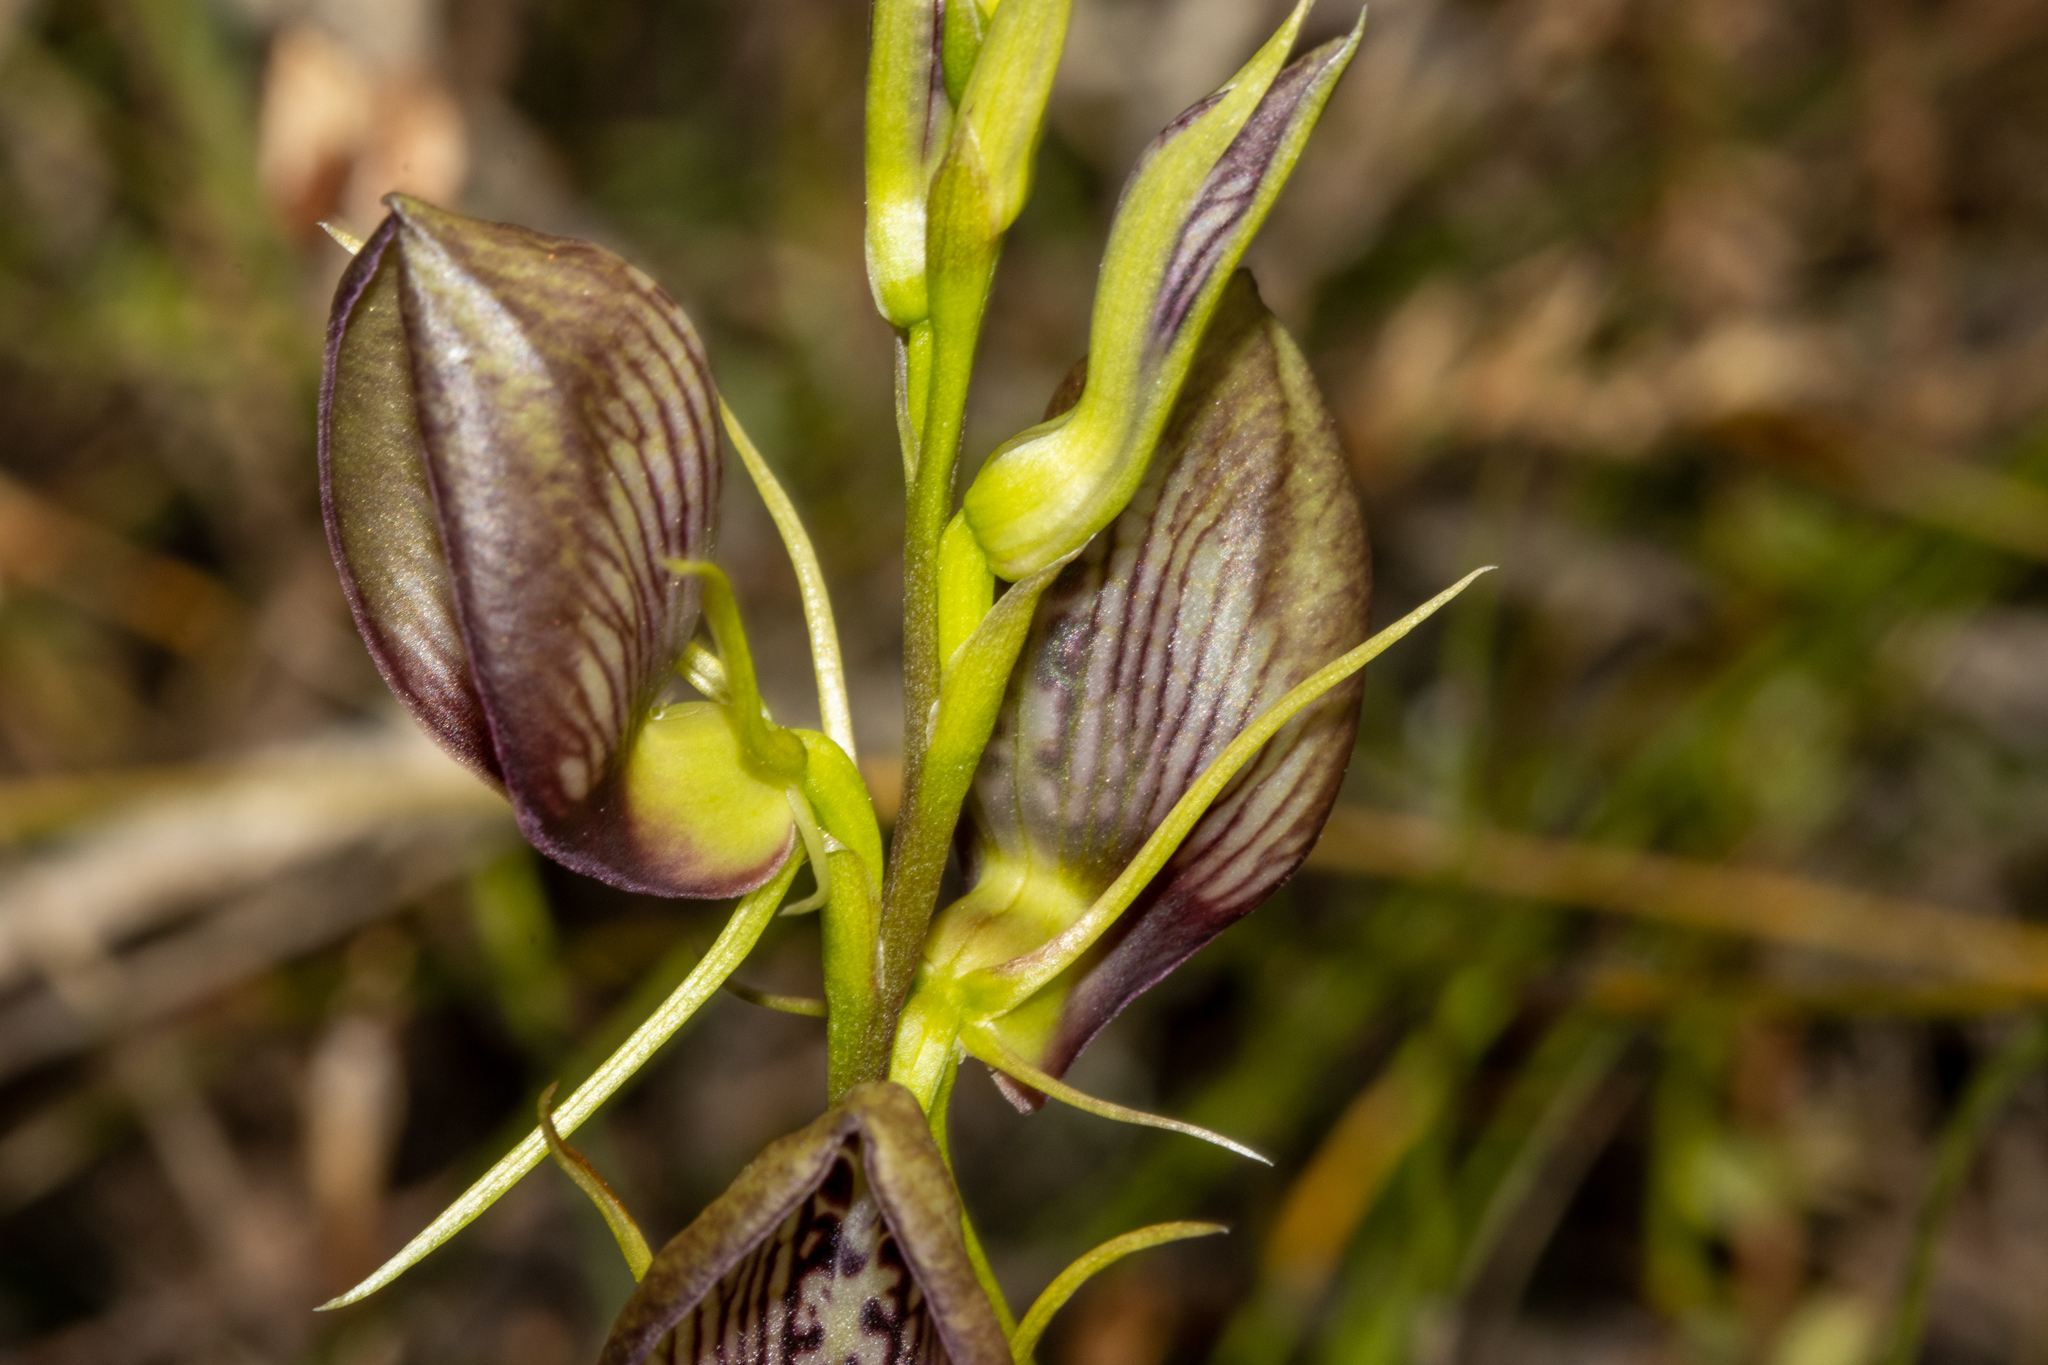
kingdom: Plantae
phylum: Tracheophyta
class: Liliopsida
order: Asparagales
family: Orchidaceae
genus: Cryptostylis
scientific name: Cryptostylis erecta
